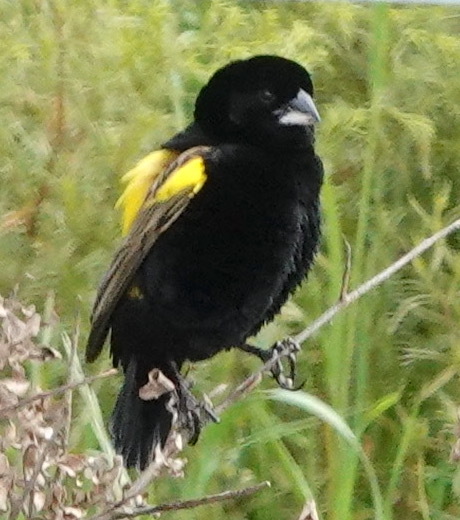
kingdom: Animalia
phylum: Chordata
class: Aves
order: Passeriformes
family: Ploceidae
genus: Euplectes
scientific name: Euplectes capensis
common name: Yellow bishop
